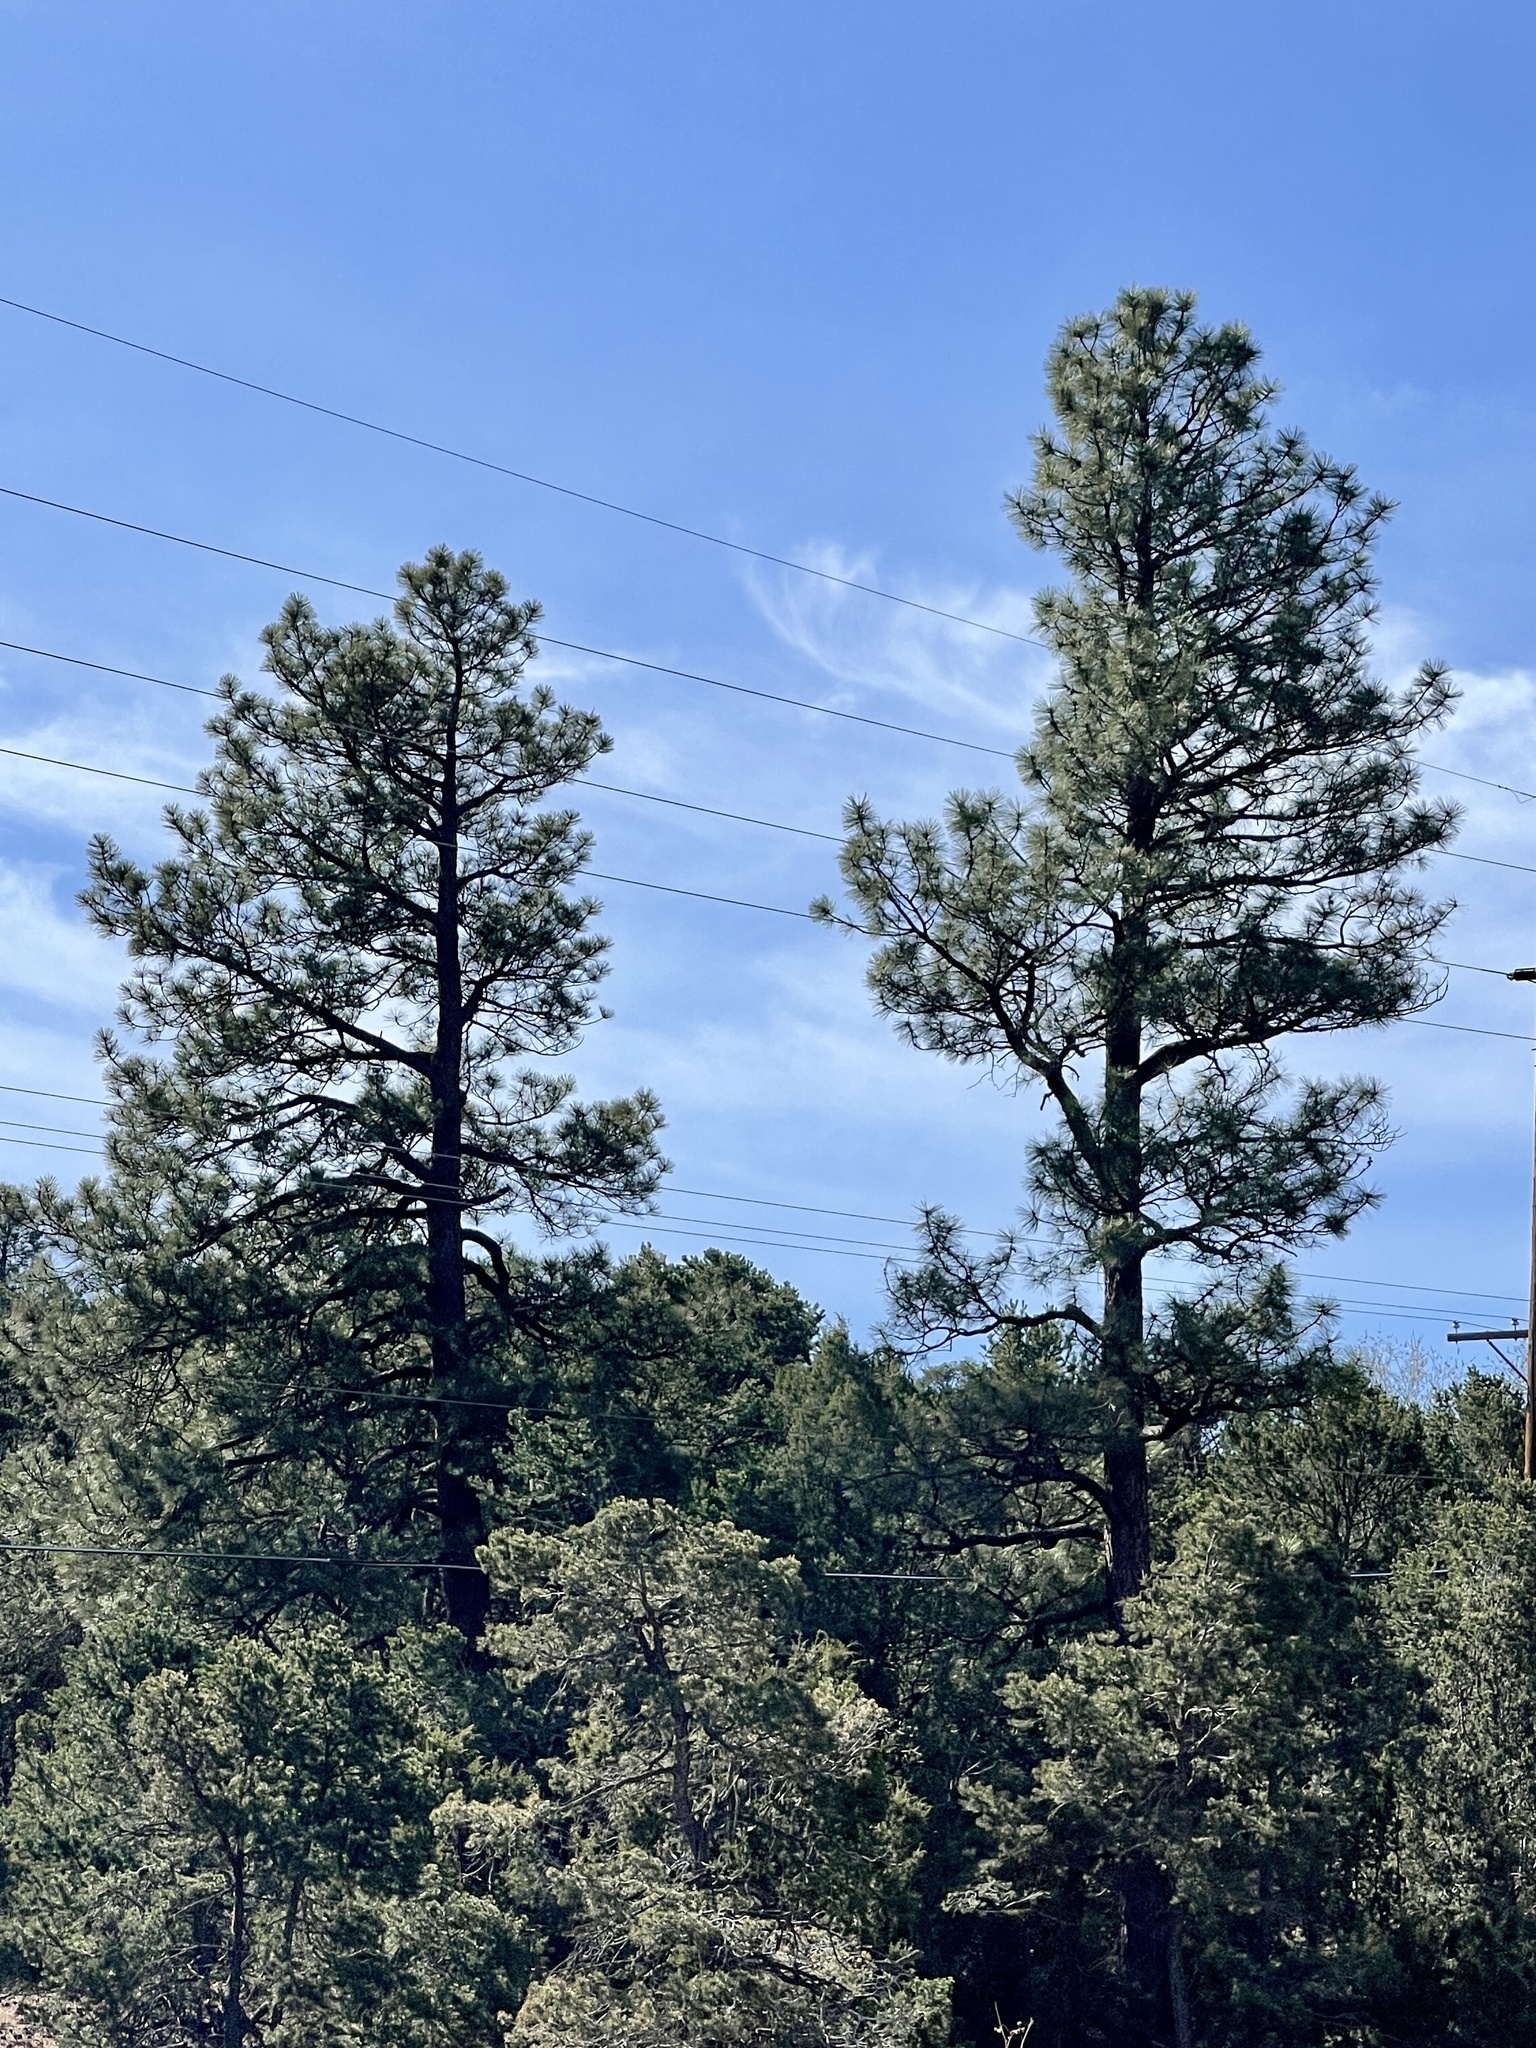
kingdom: Plantae
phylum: Tracheophyta
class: Pinopsida
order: Pinales
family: Pinaceae
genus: Pinus
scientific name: Pinus ponderosa
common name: Western yellow-pine
